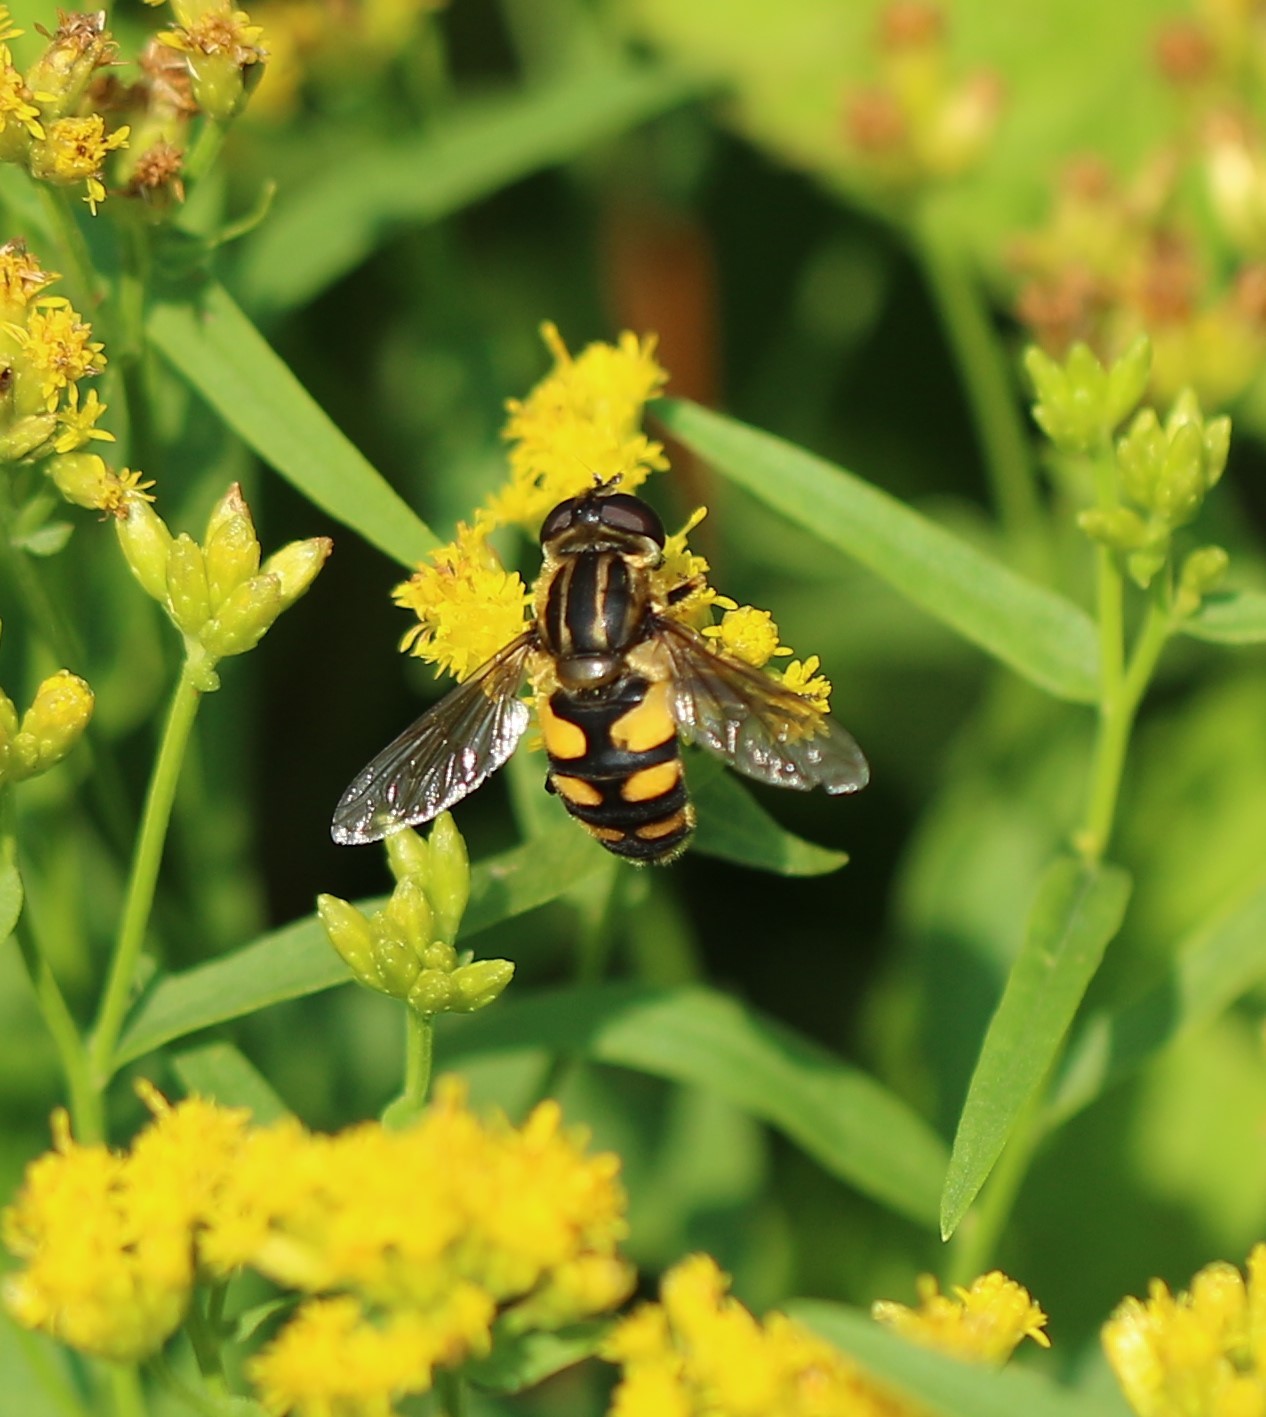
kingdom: Animalia
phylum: Arthropoda
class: Insecta
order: Diptera
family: Syrphidae
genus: Helophilus
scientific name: Helophilus obscurus
